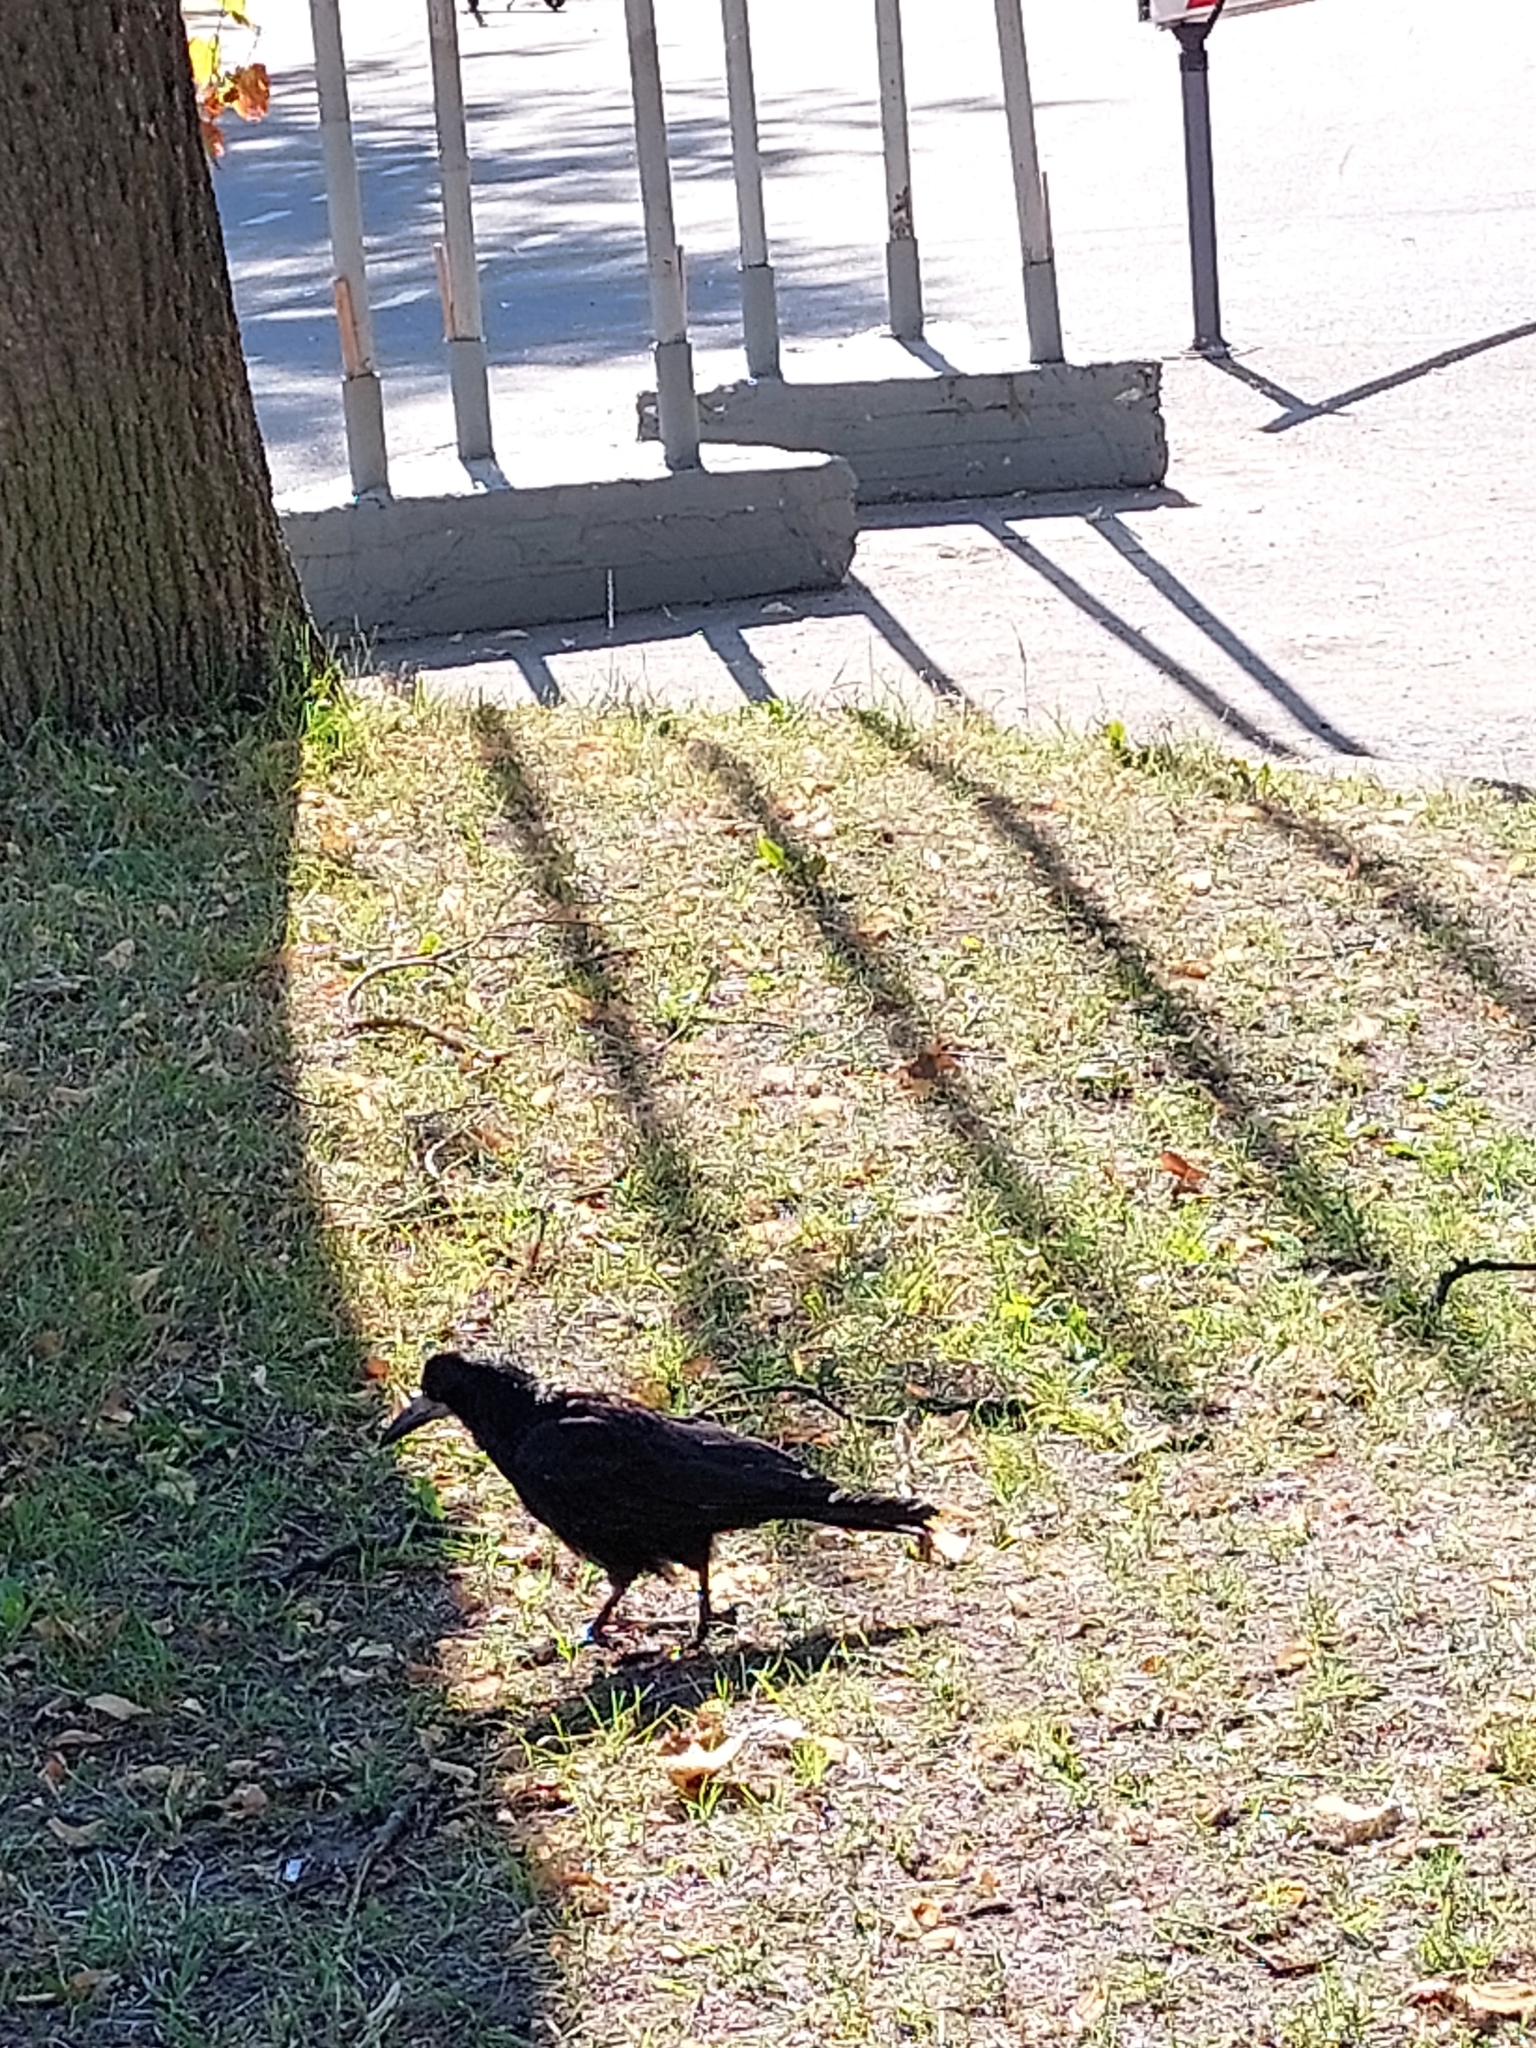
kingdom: Animalia
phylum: Chordata
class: Aves
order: Passeriformes
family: Corvidae
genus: Corvus
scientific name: Corvus frugilegus
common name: Rook
